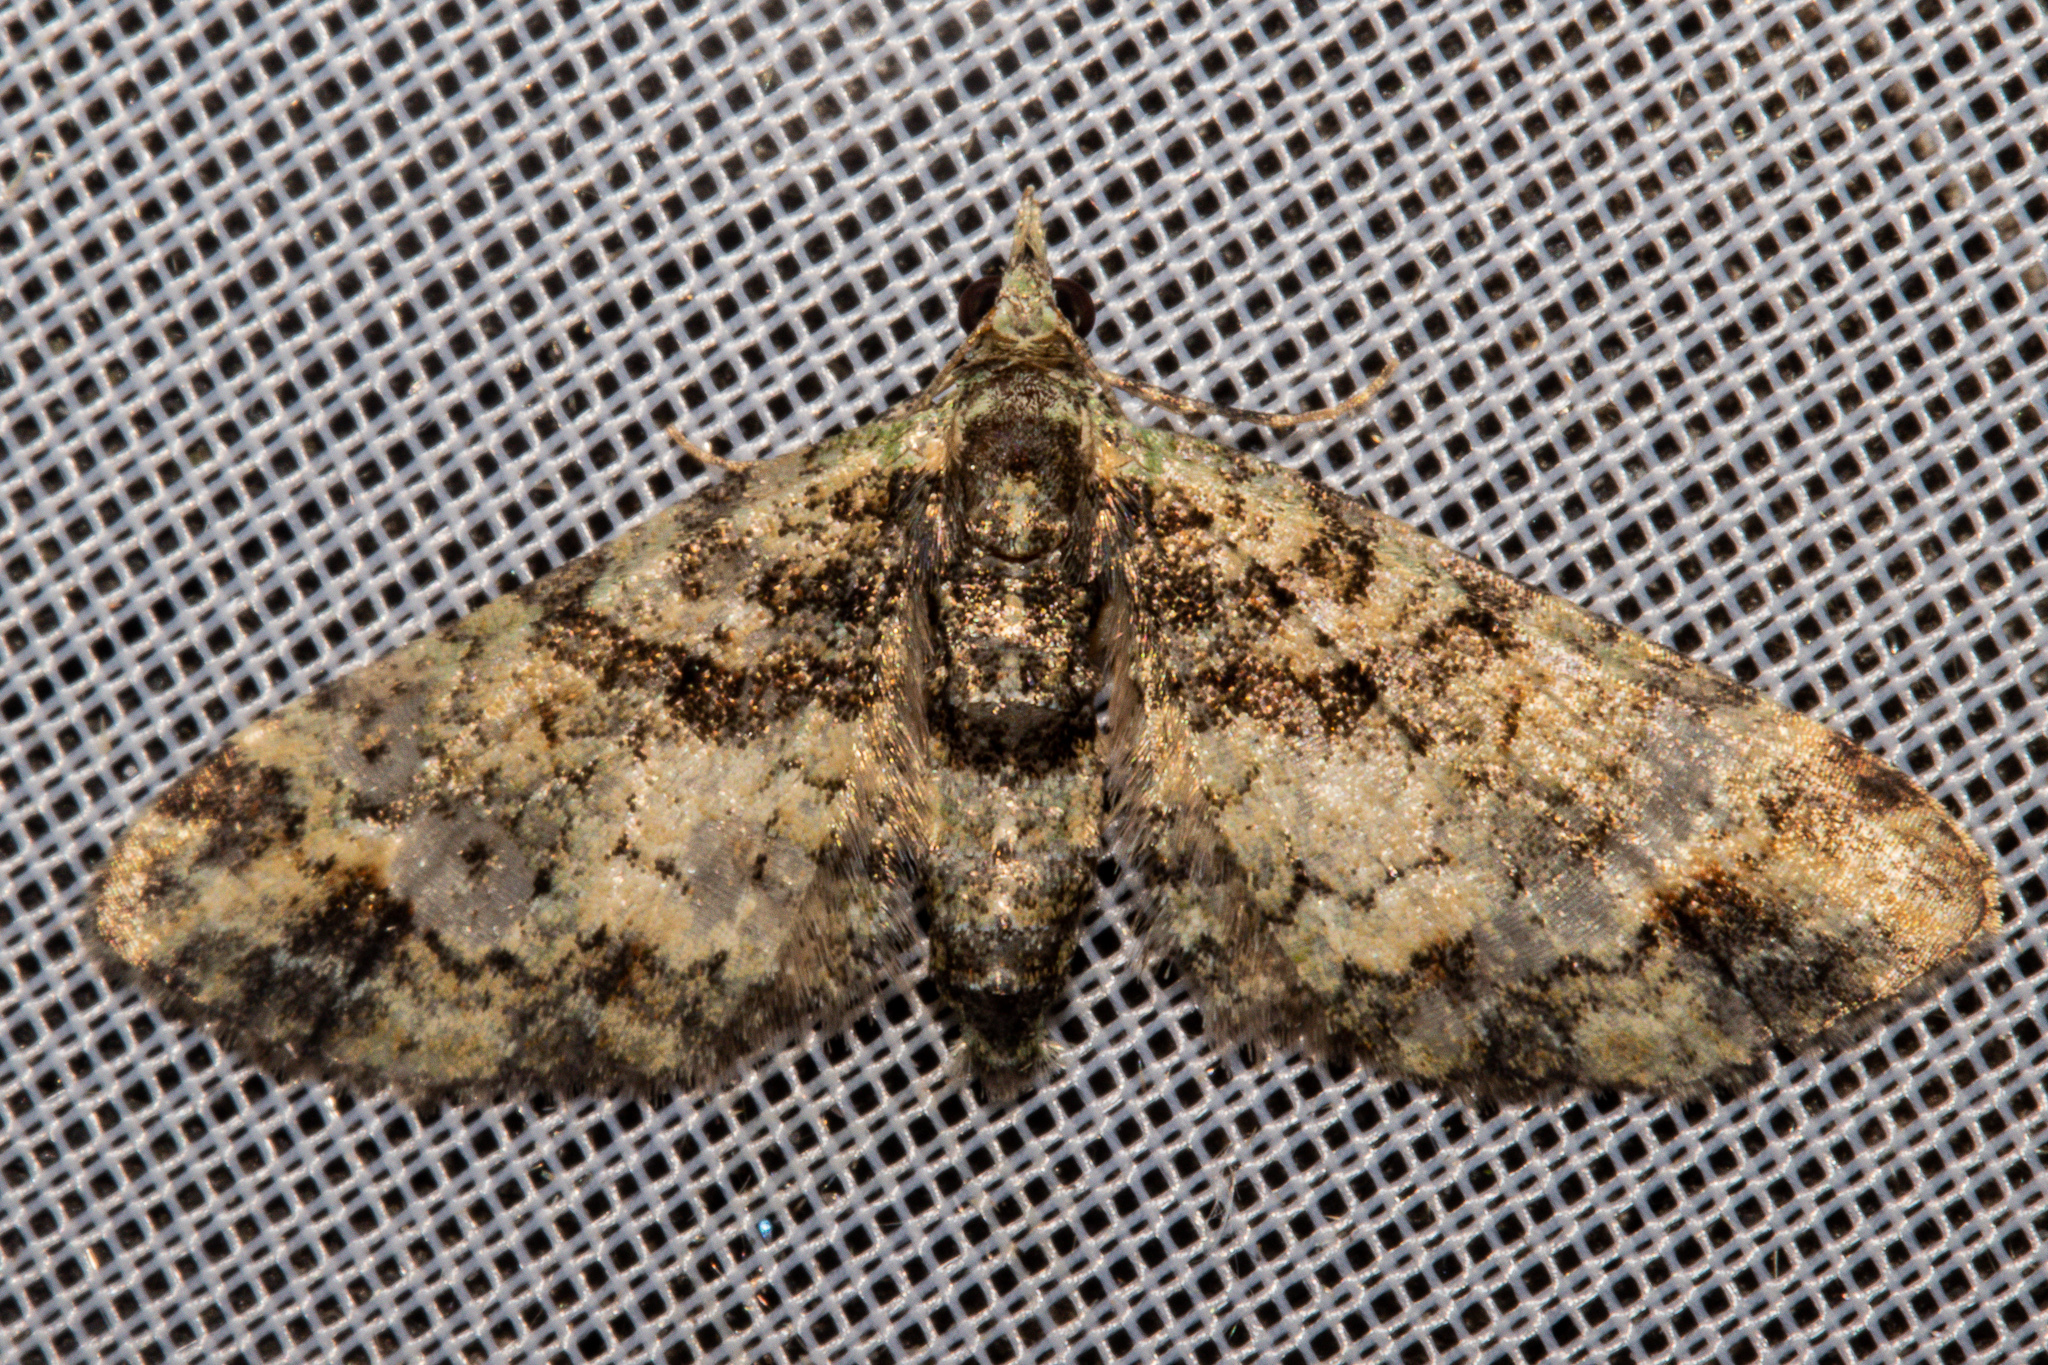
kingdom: Animalia
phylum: Arthropoda
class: Insecta
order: Lepidoptera
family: Geometridae
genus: Idaea
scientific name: Idaea mutanda
